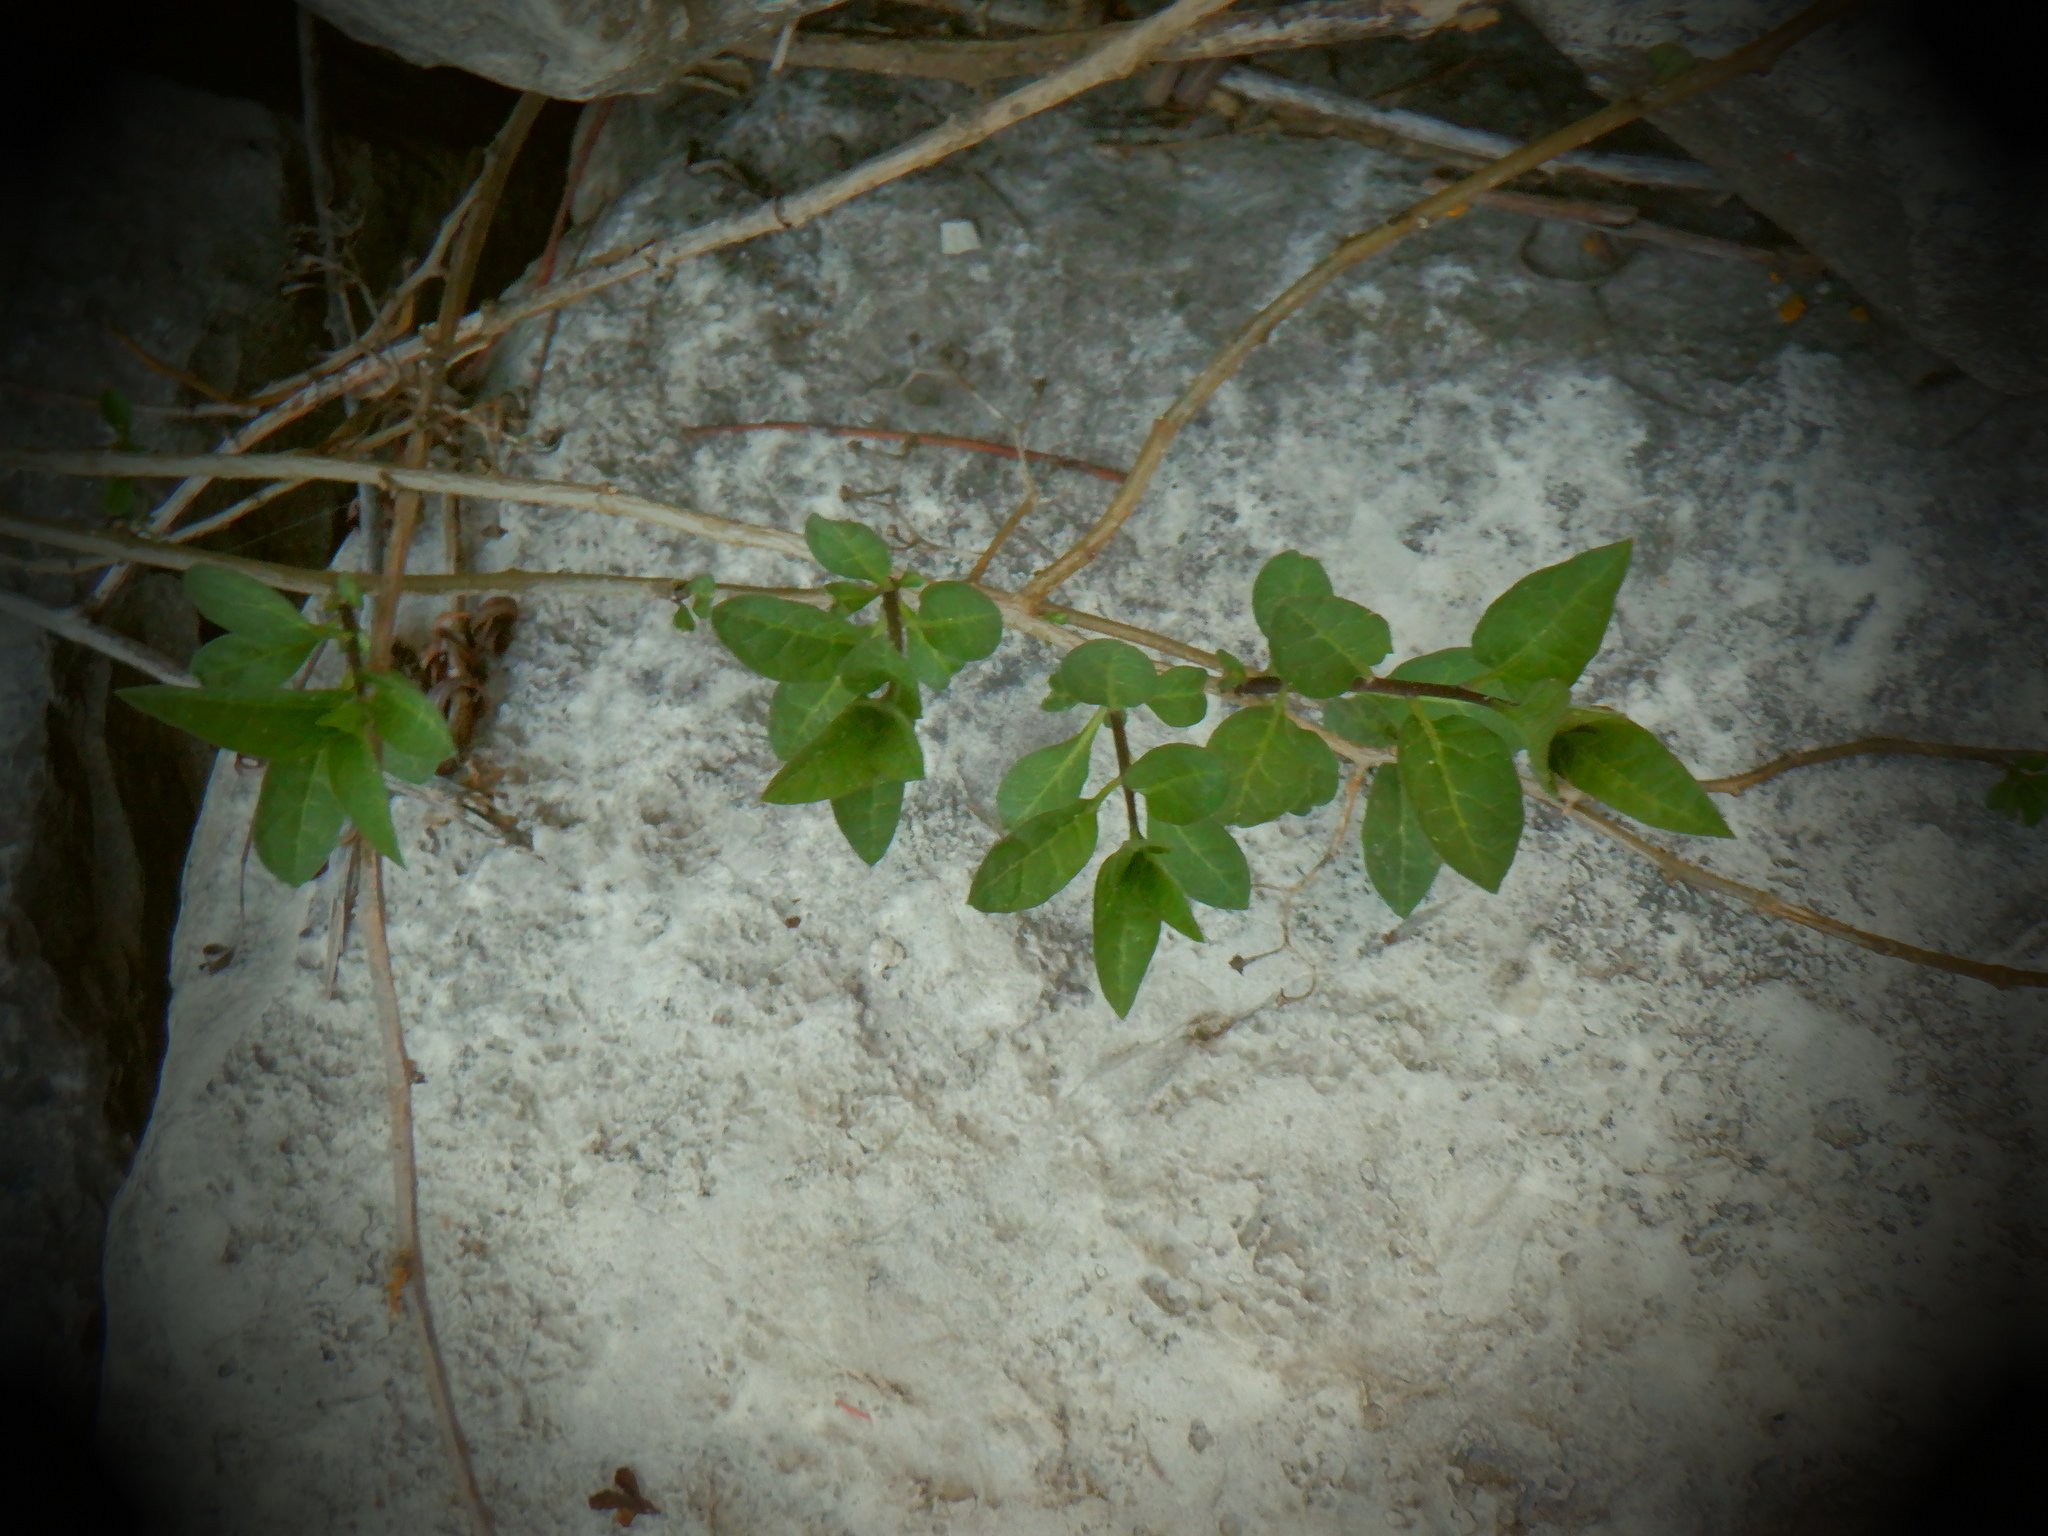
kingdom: Plantae
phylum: Tracheophyta
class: Magnoliopsida
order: Solanales
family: Solanaceae
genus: Solanum
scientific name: Solanum dulcamara
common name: Climbing nightshade
